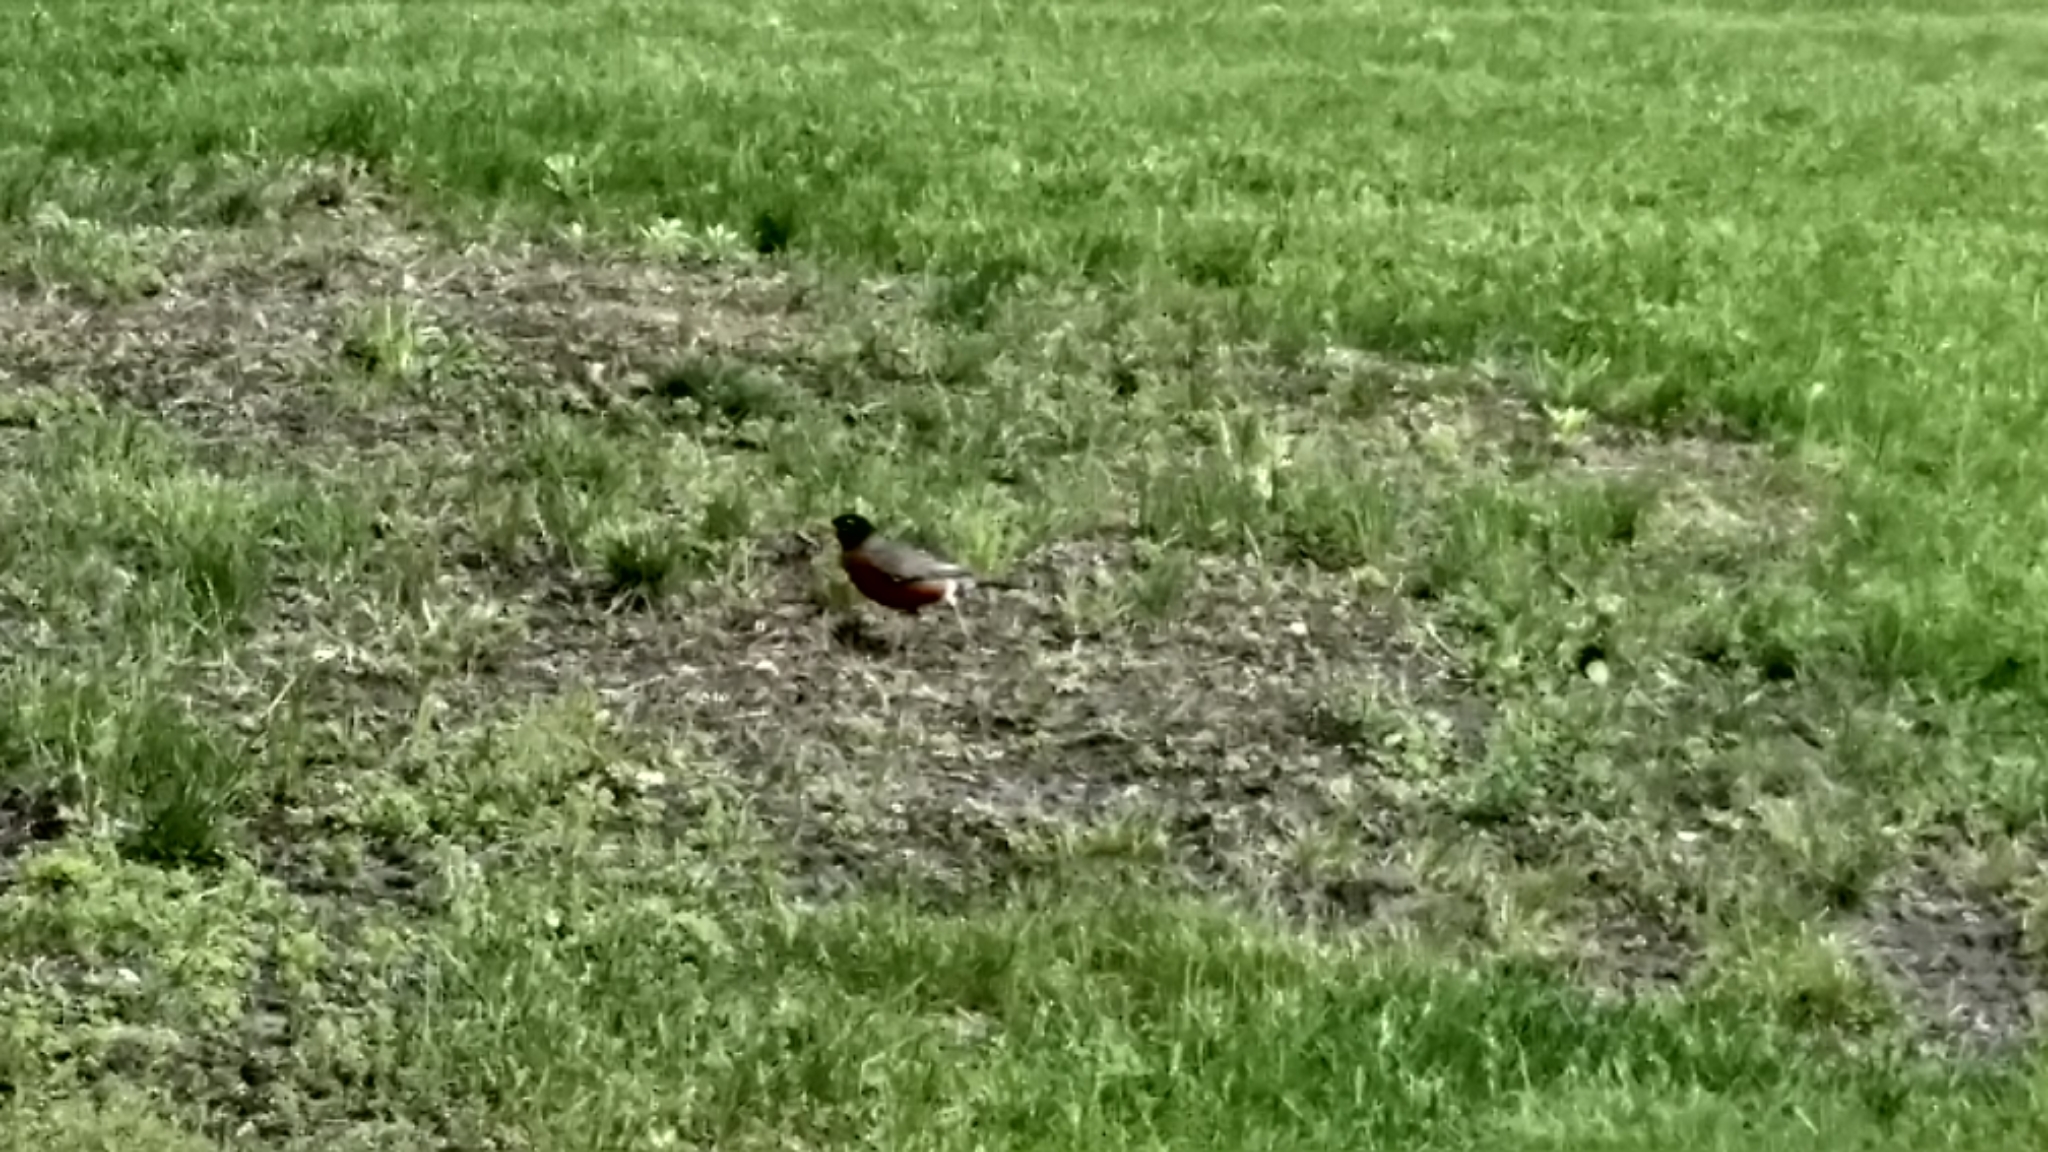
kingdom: Animalia
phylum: Chordata
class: Aves
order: Passeriformes
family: Turdidae
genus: Turdus
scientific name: Turdus migratorius
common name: American robin
